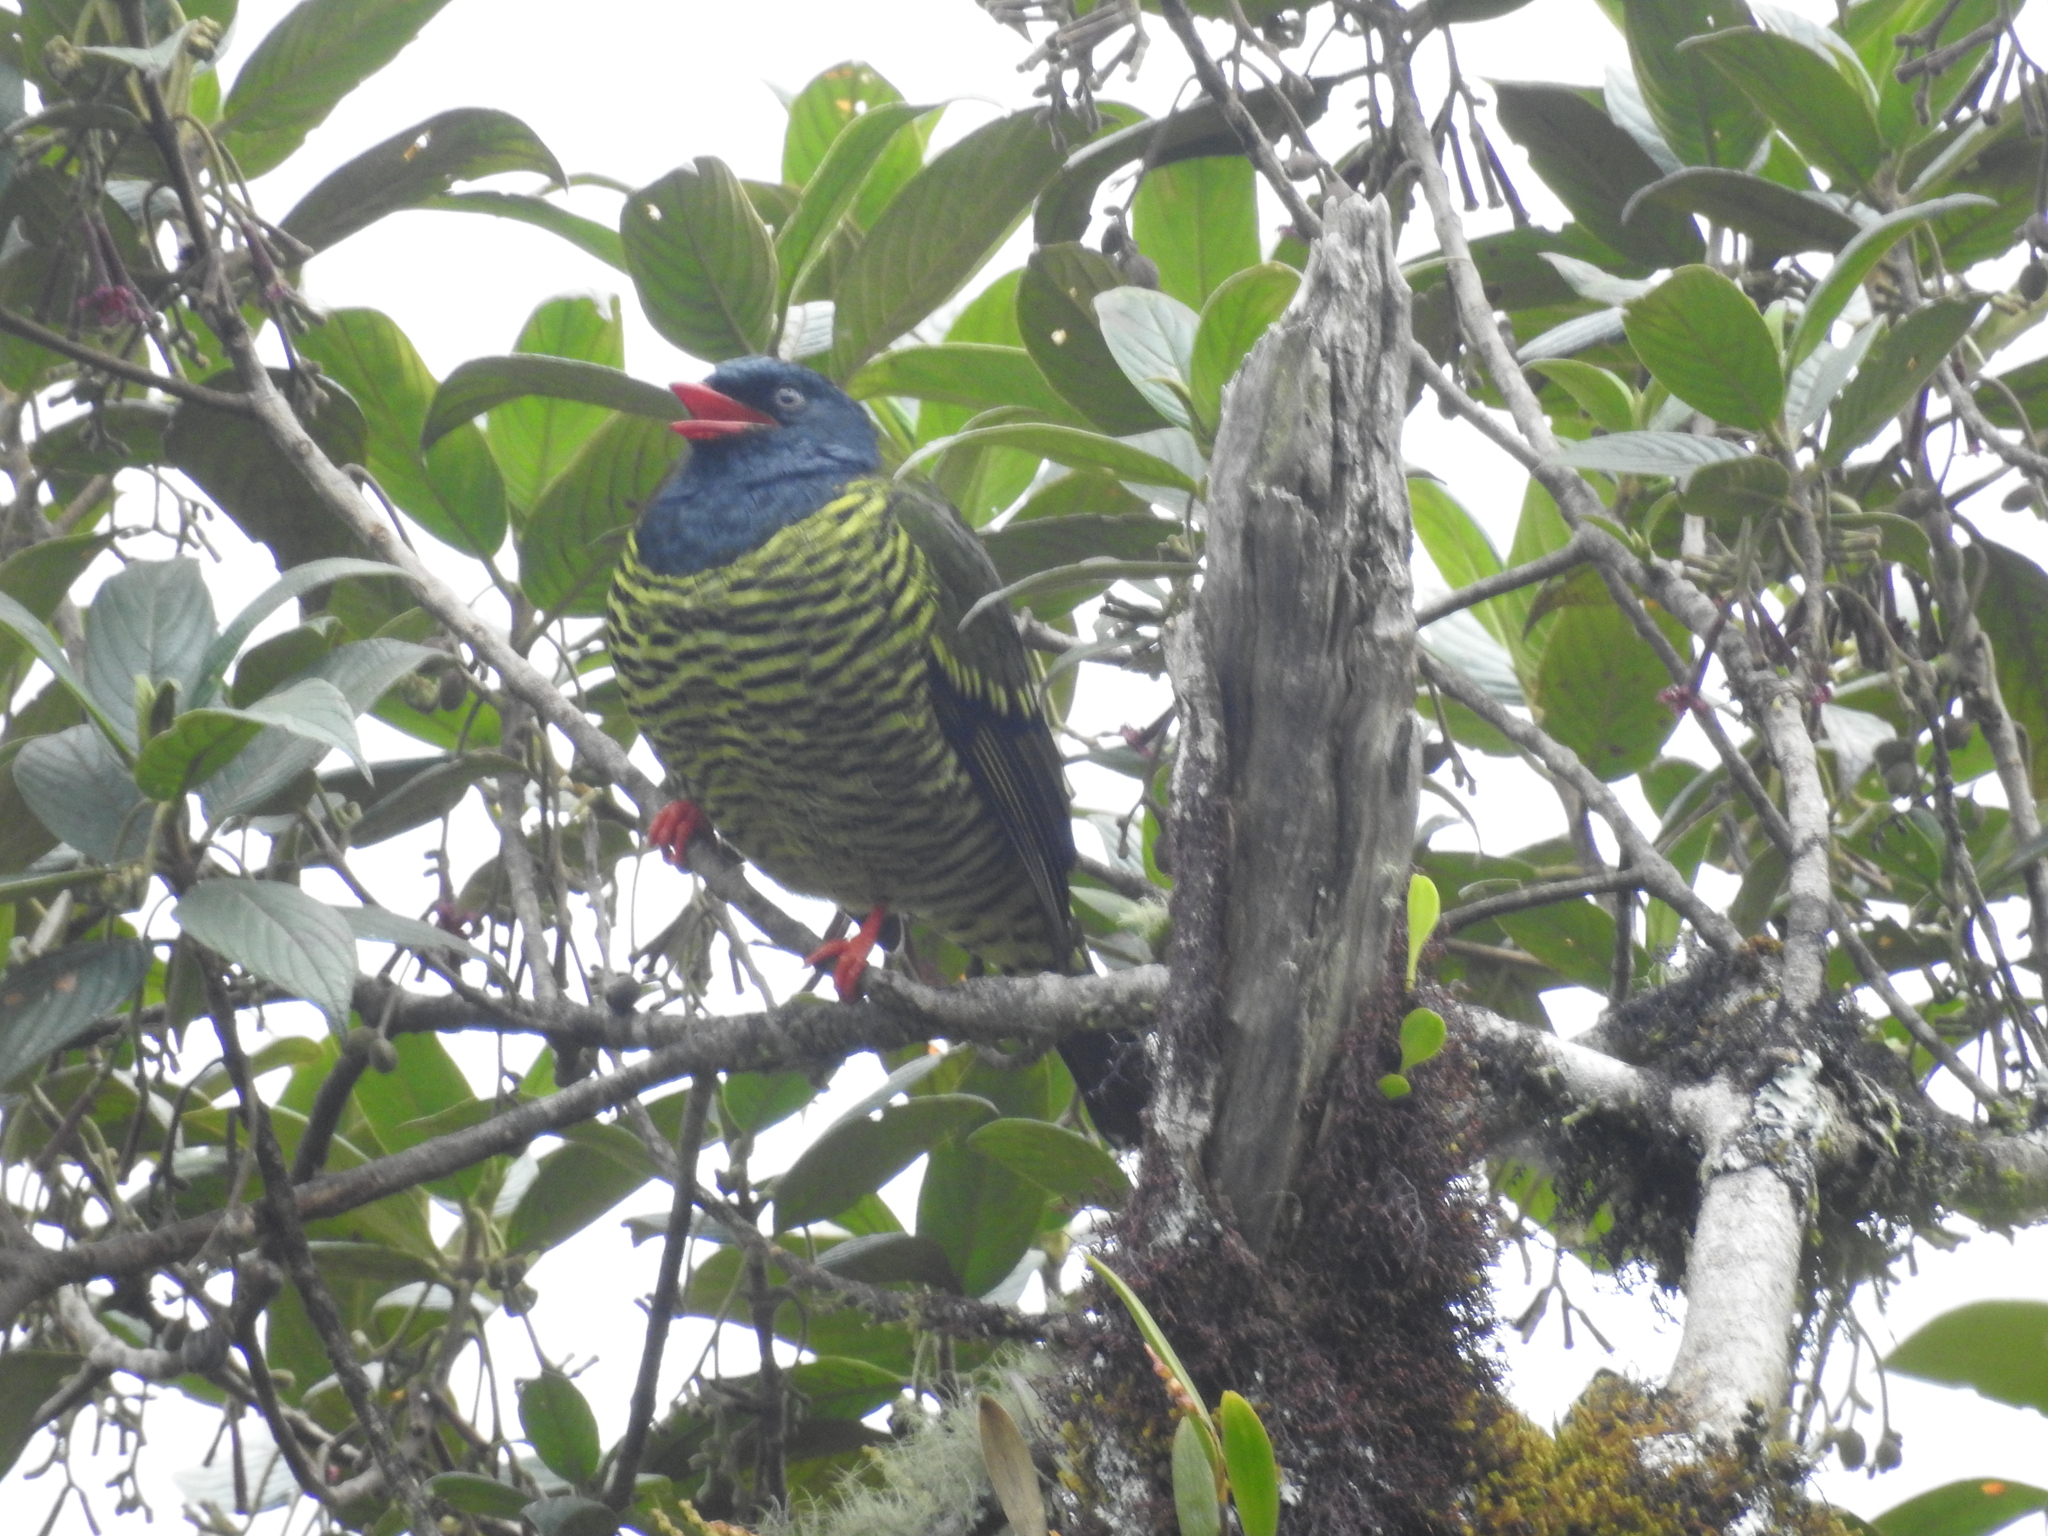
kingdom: Animalia
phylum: Chordata
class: Aves
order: Passeriformes
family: Cotingidae
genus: Pipreola
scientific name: Pipreola arcuata
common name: Barred fruiteater
